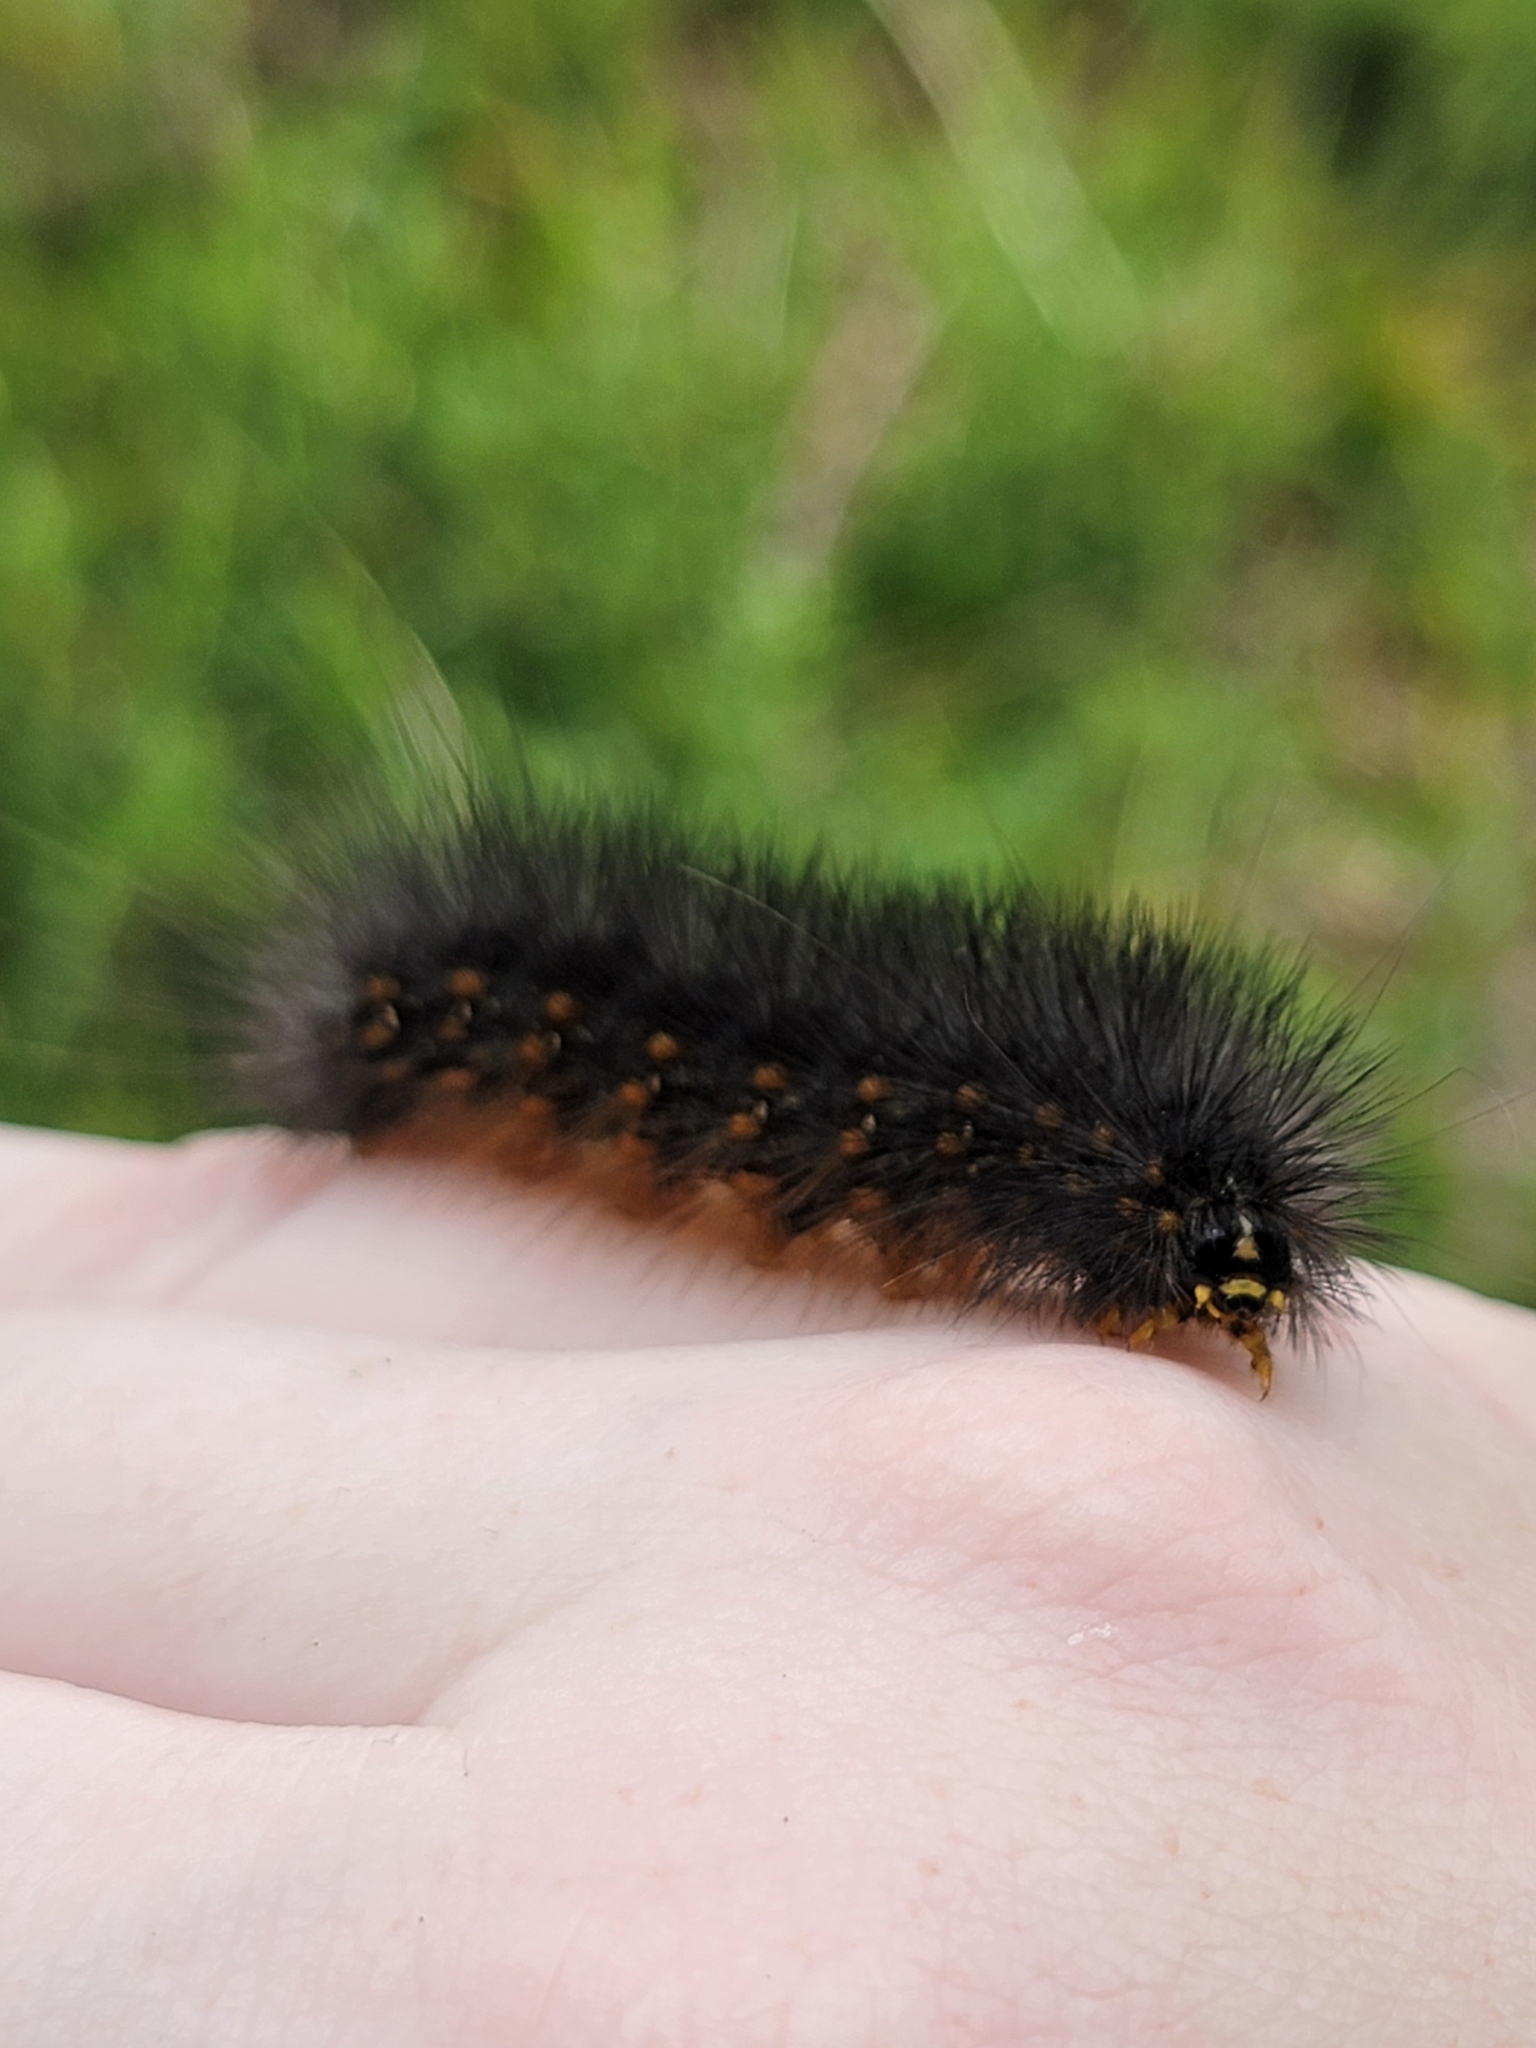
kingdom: Animalia
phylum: Arthropoda
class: Insecta
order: Lepidoptera
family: Erebidae
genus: Estigmene
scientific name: Estigmene acrea
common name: Salt marsh moth
